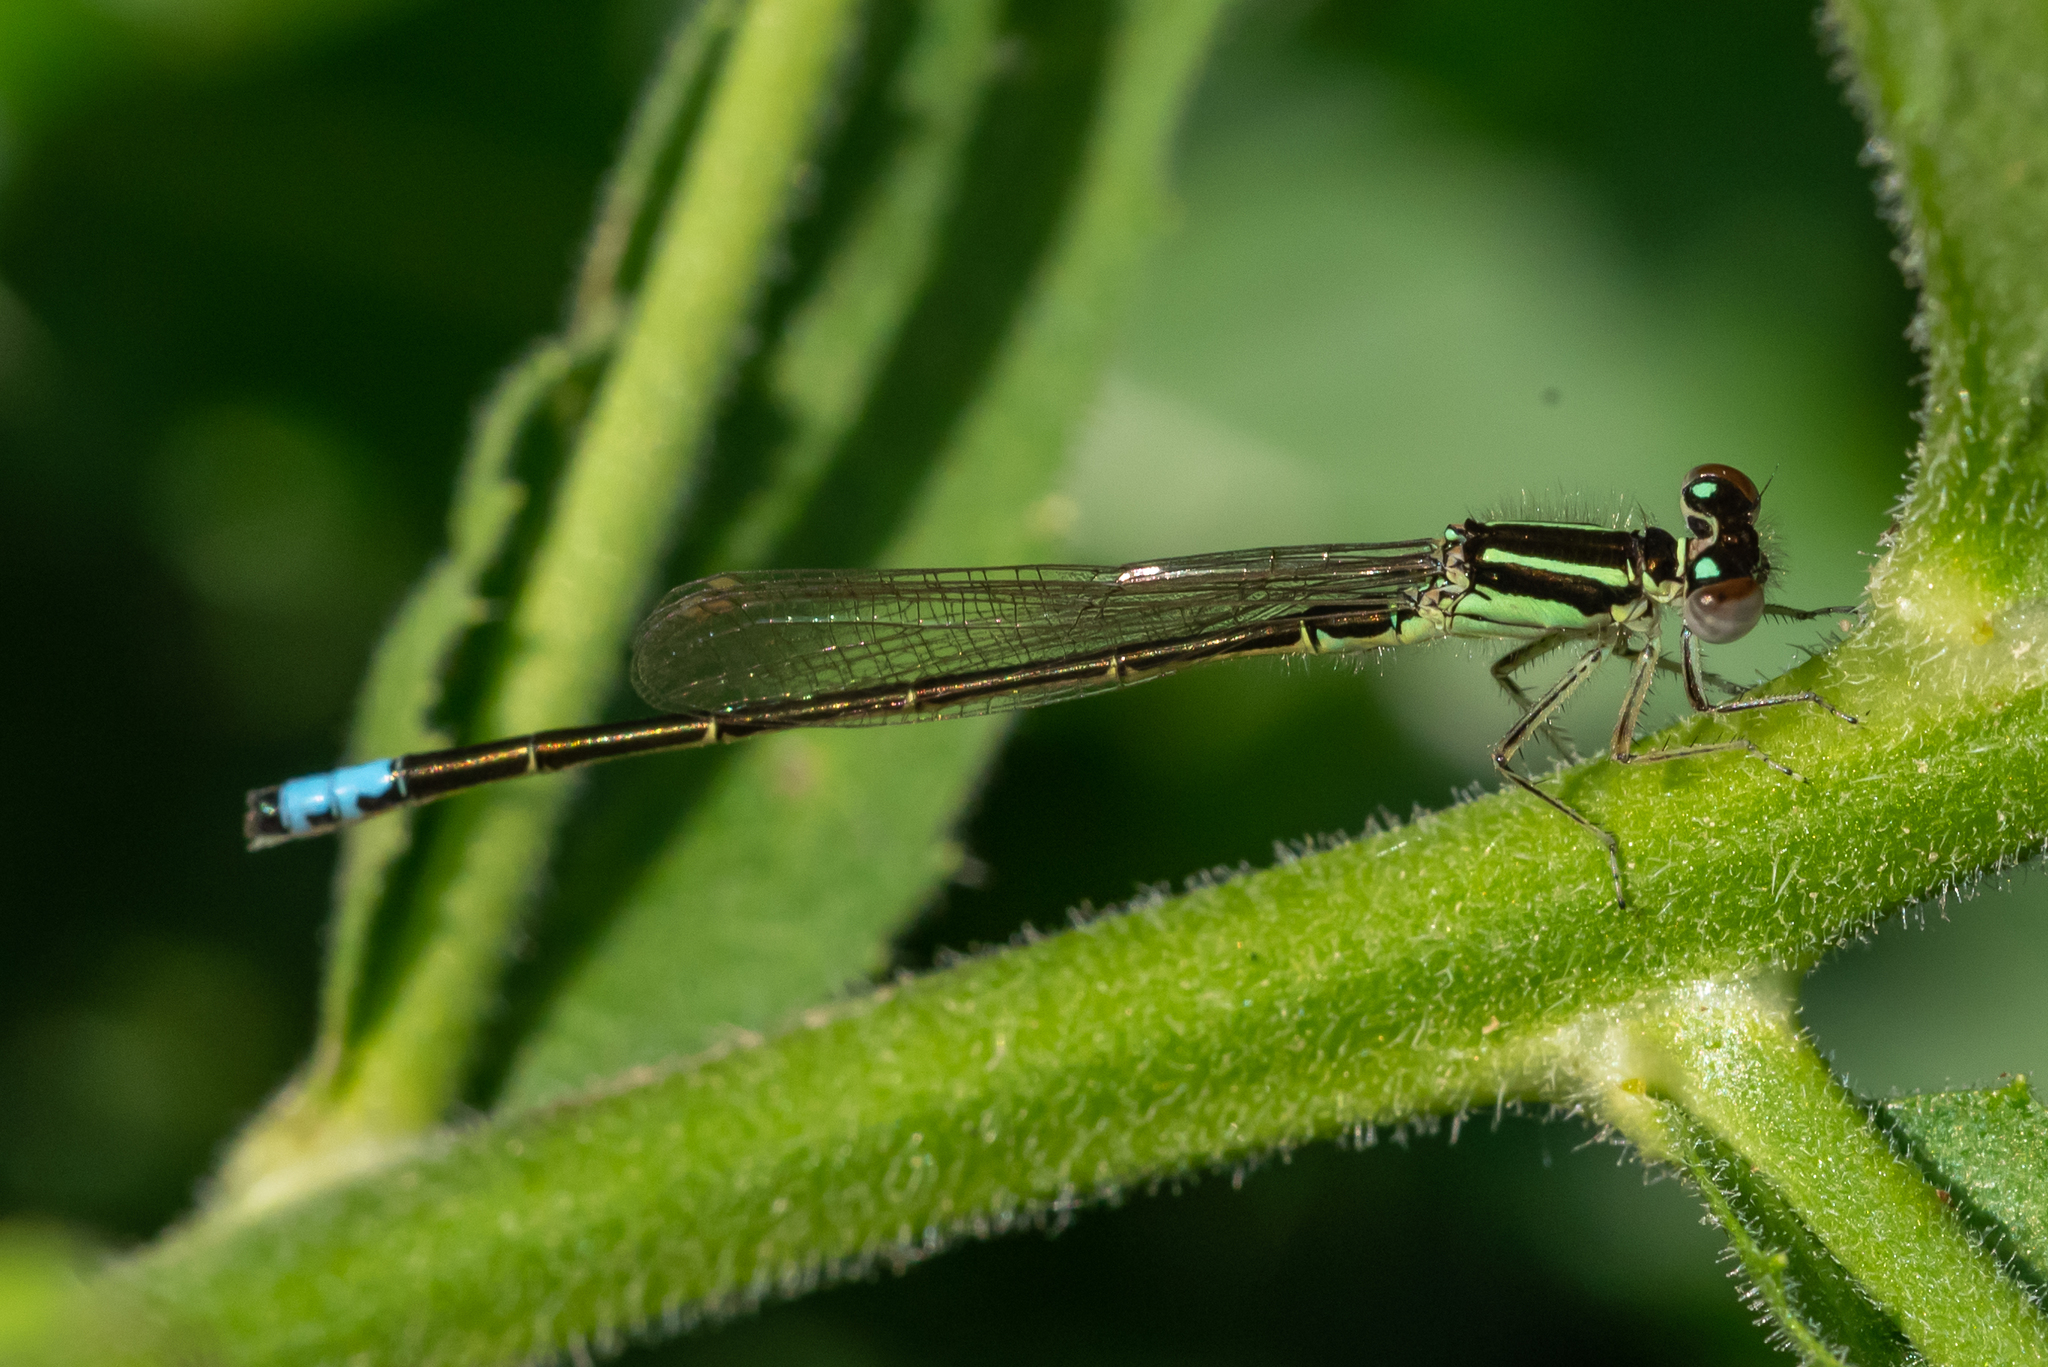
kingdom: Animalia
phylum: Arthropoda
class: Insecta
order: Odonata
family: Coenagrionidae
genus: Ischnura
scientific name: Ischnura verticalis
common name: Eastern forktail
